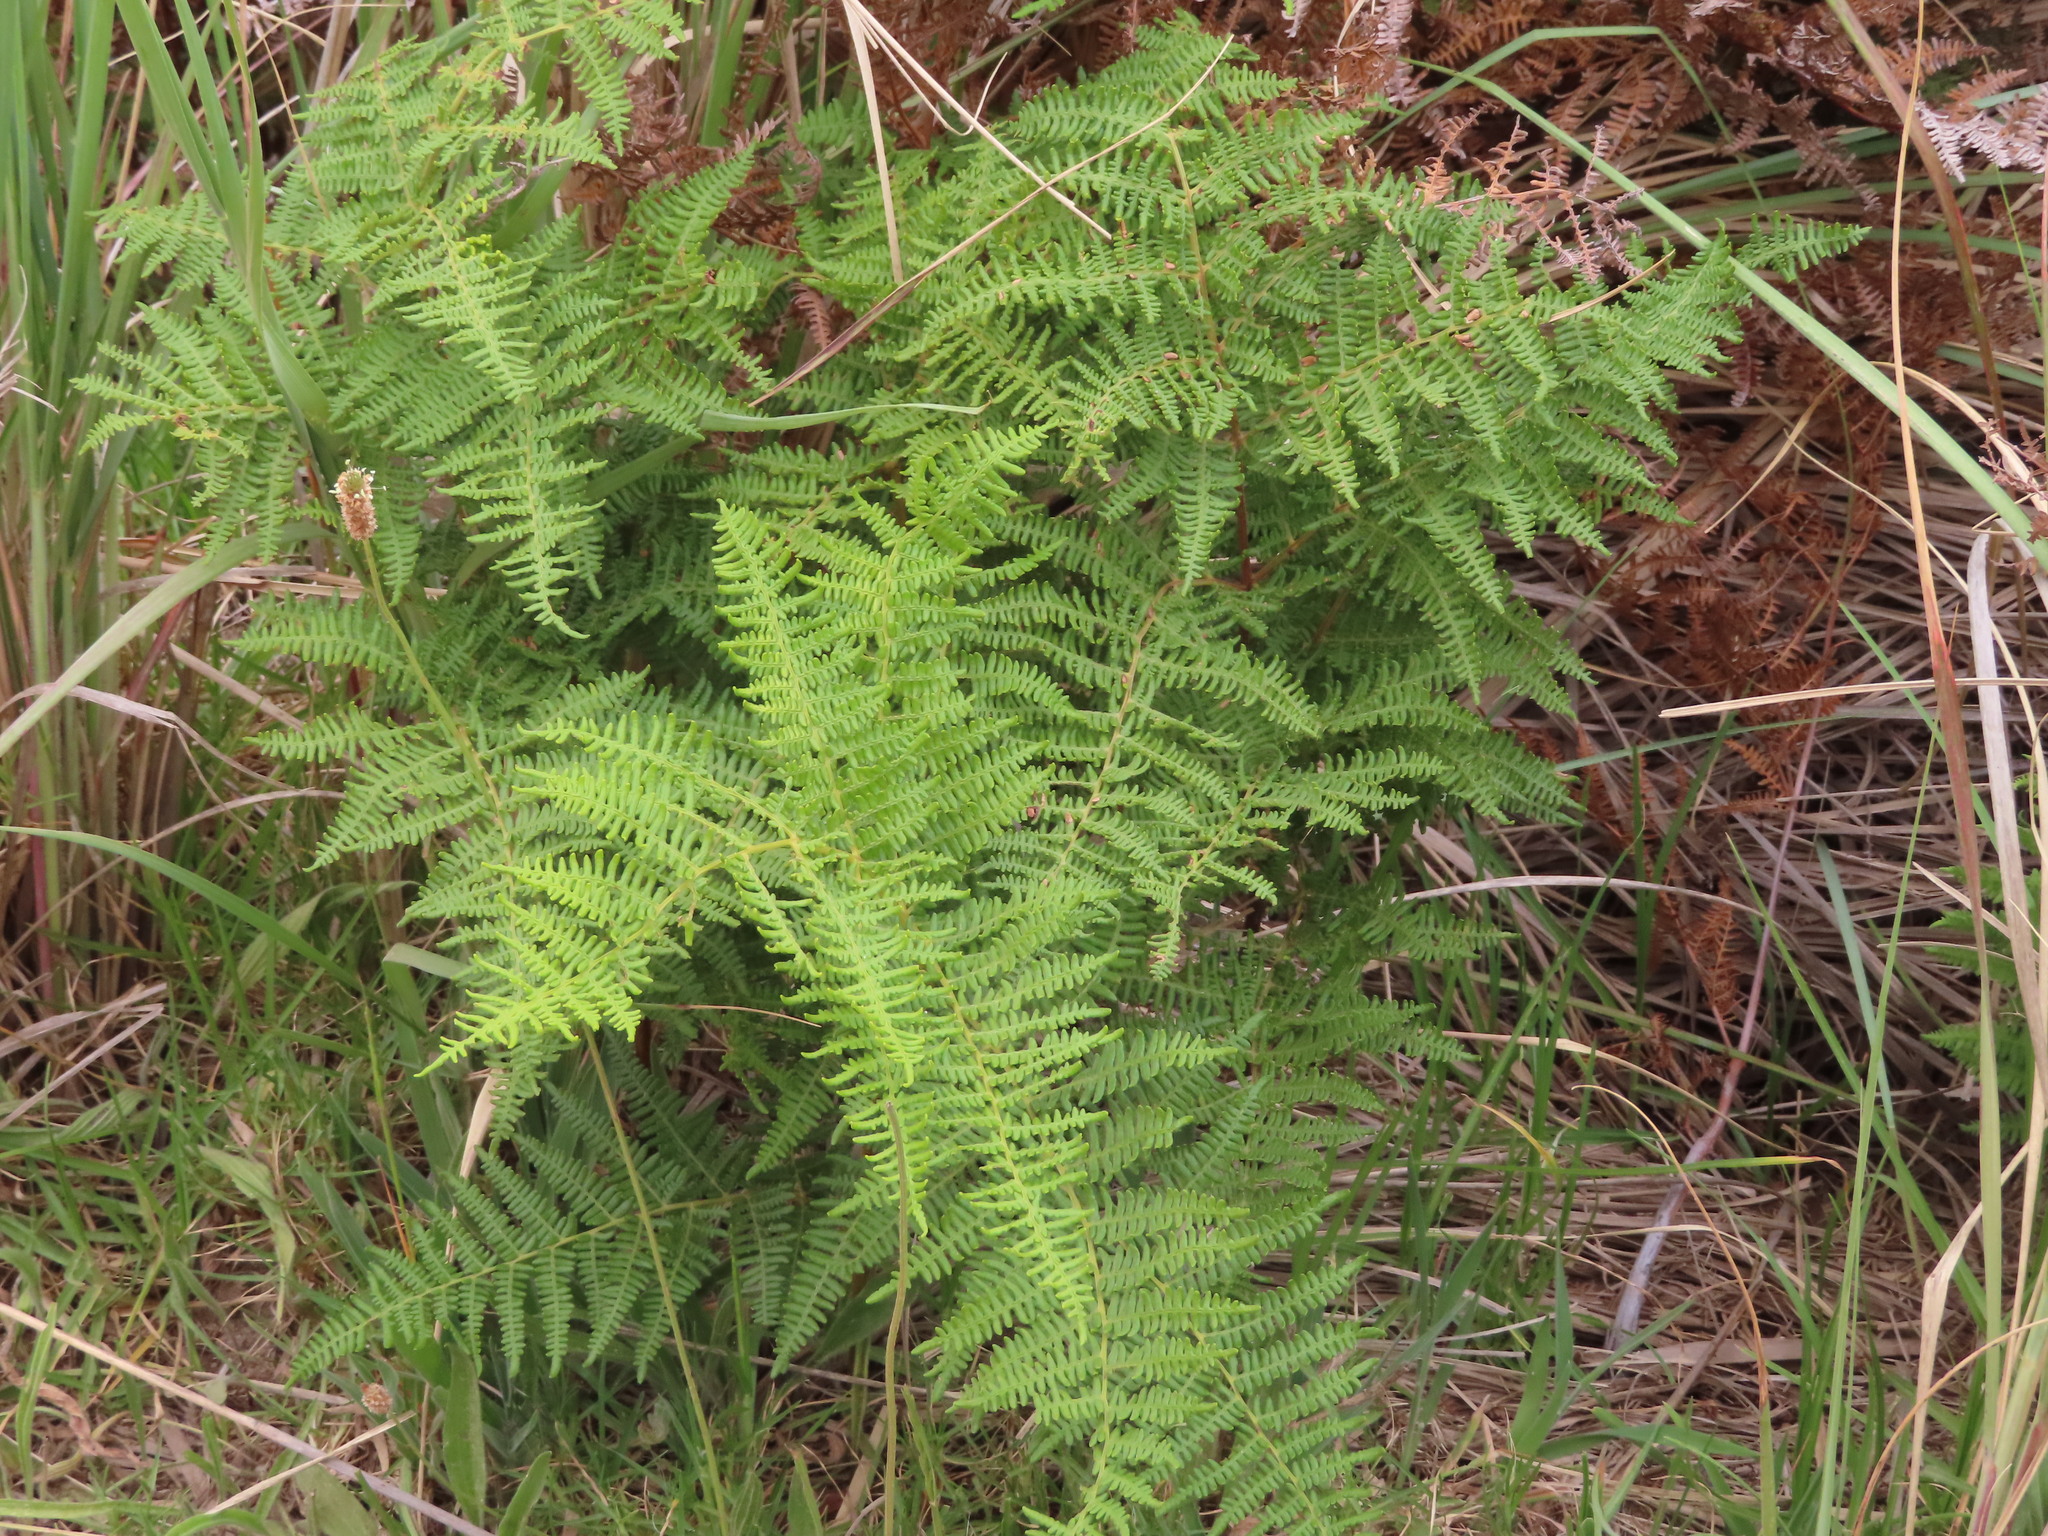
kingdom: Plantae
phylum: Tracheophyta
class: Polypodiopsida
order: Polypodiales
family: Dennstaedtiaceae
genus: Pteridium
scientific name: Pteridium aquilinum
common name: Bracken
